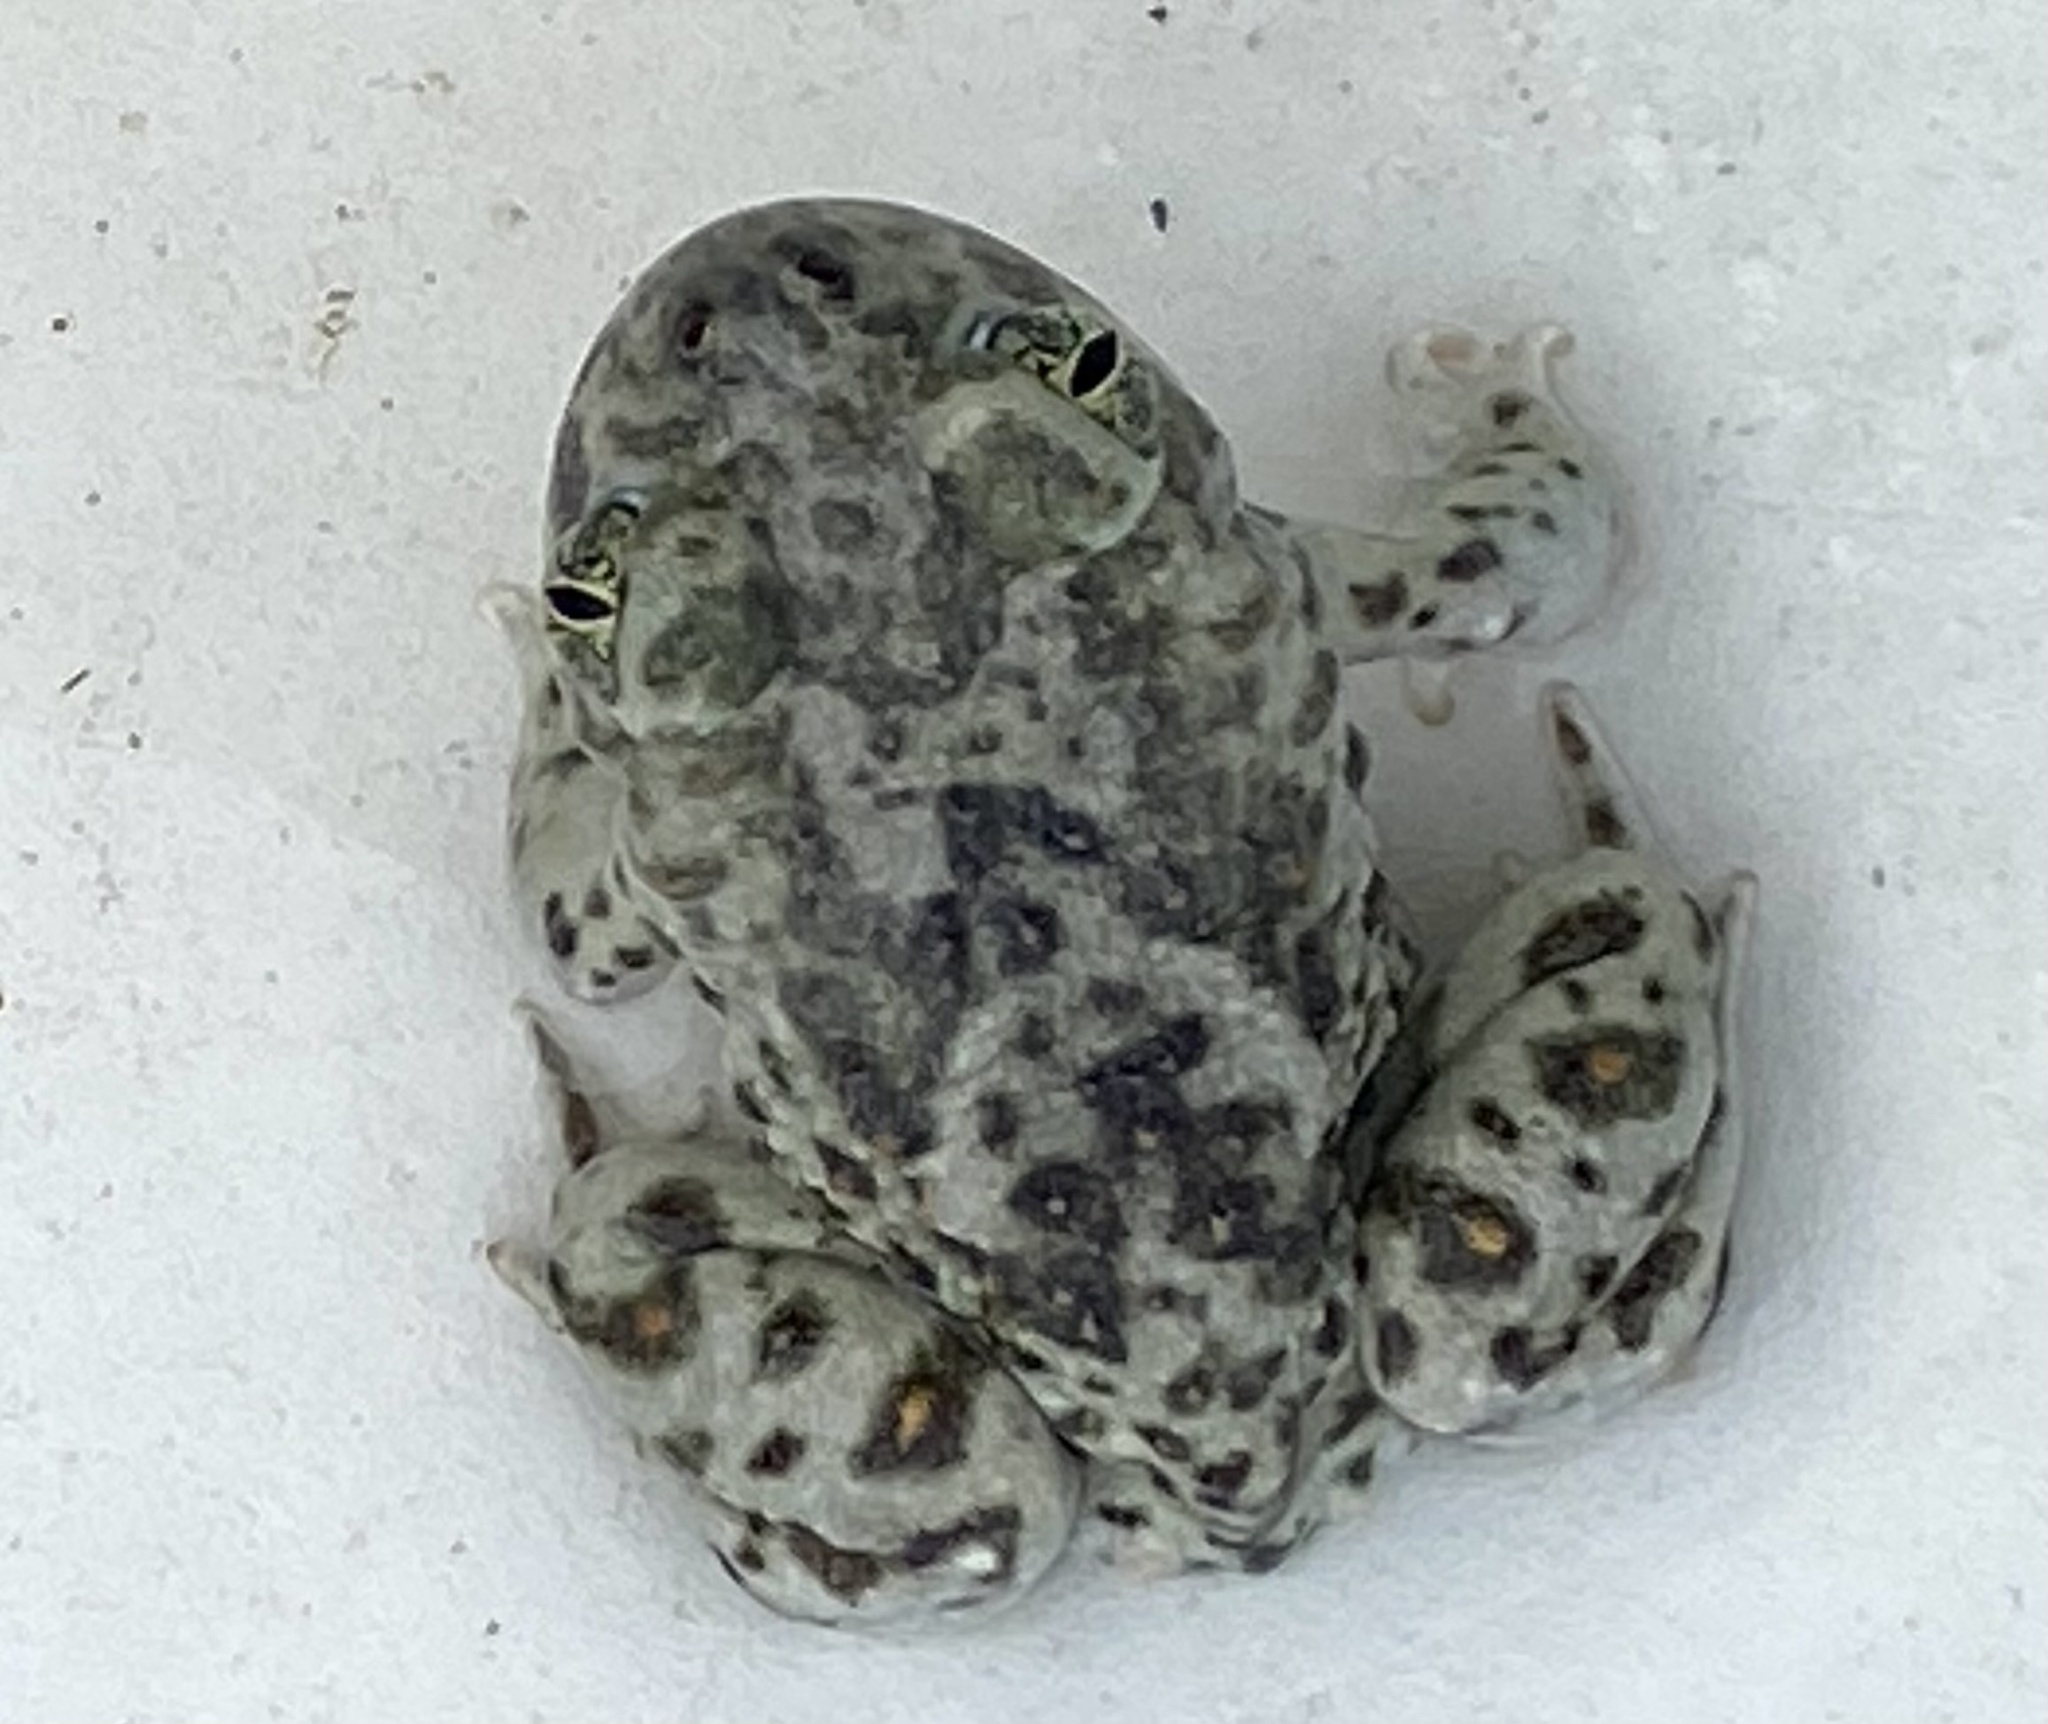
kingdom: Animalia
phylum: Chordata
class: Amphibia
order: Anura
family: Scaphiopodidae
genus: Spea
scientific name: Spea hammondii
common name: Western spadefoot toad
